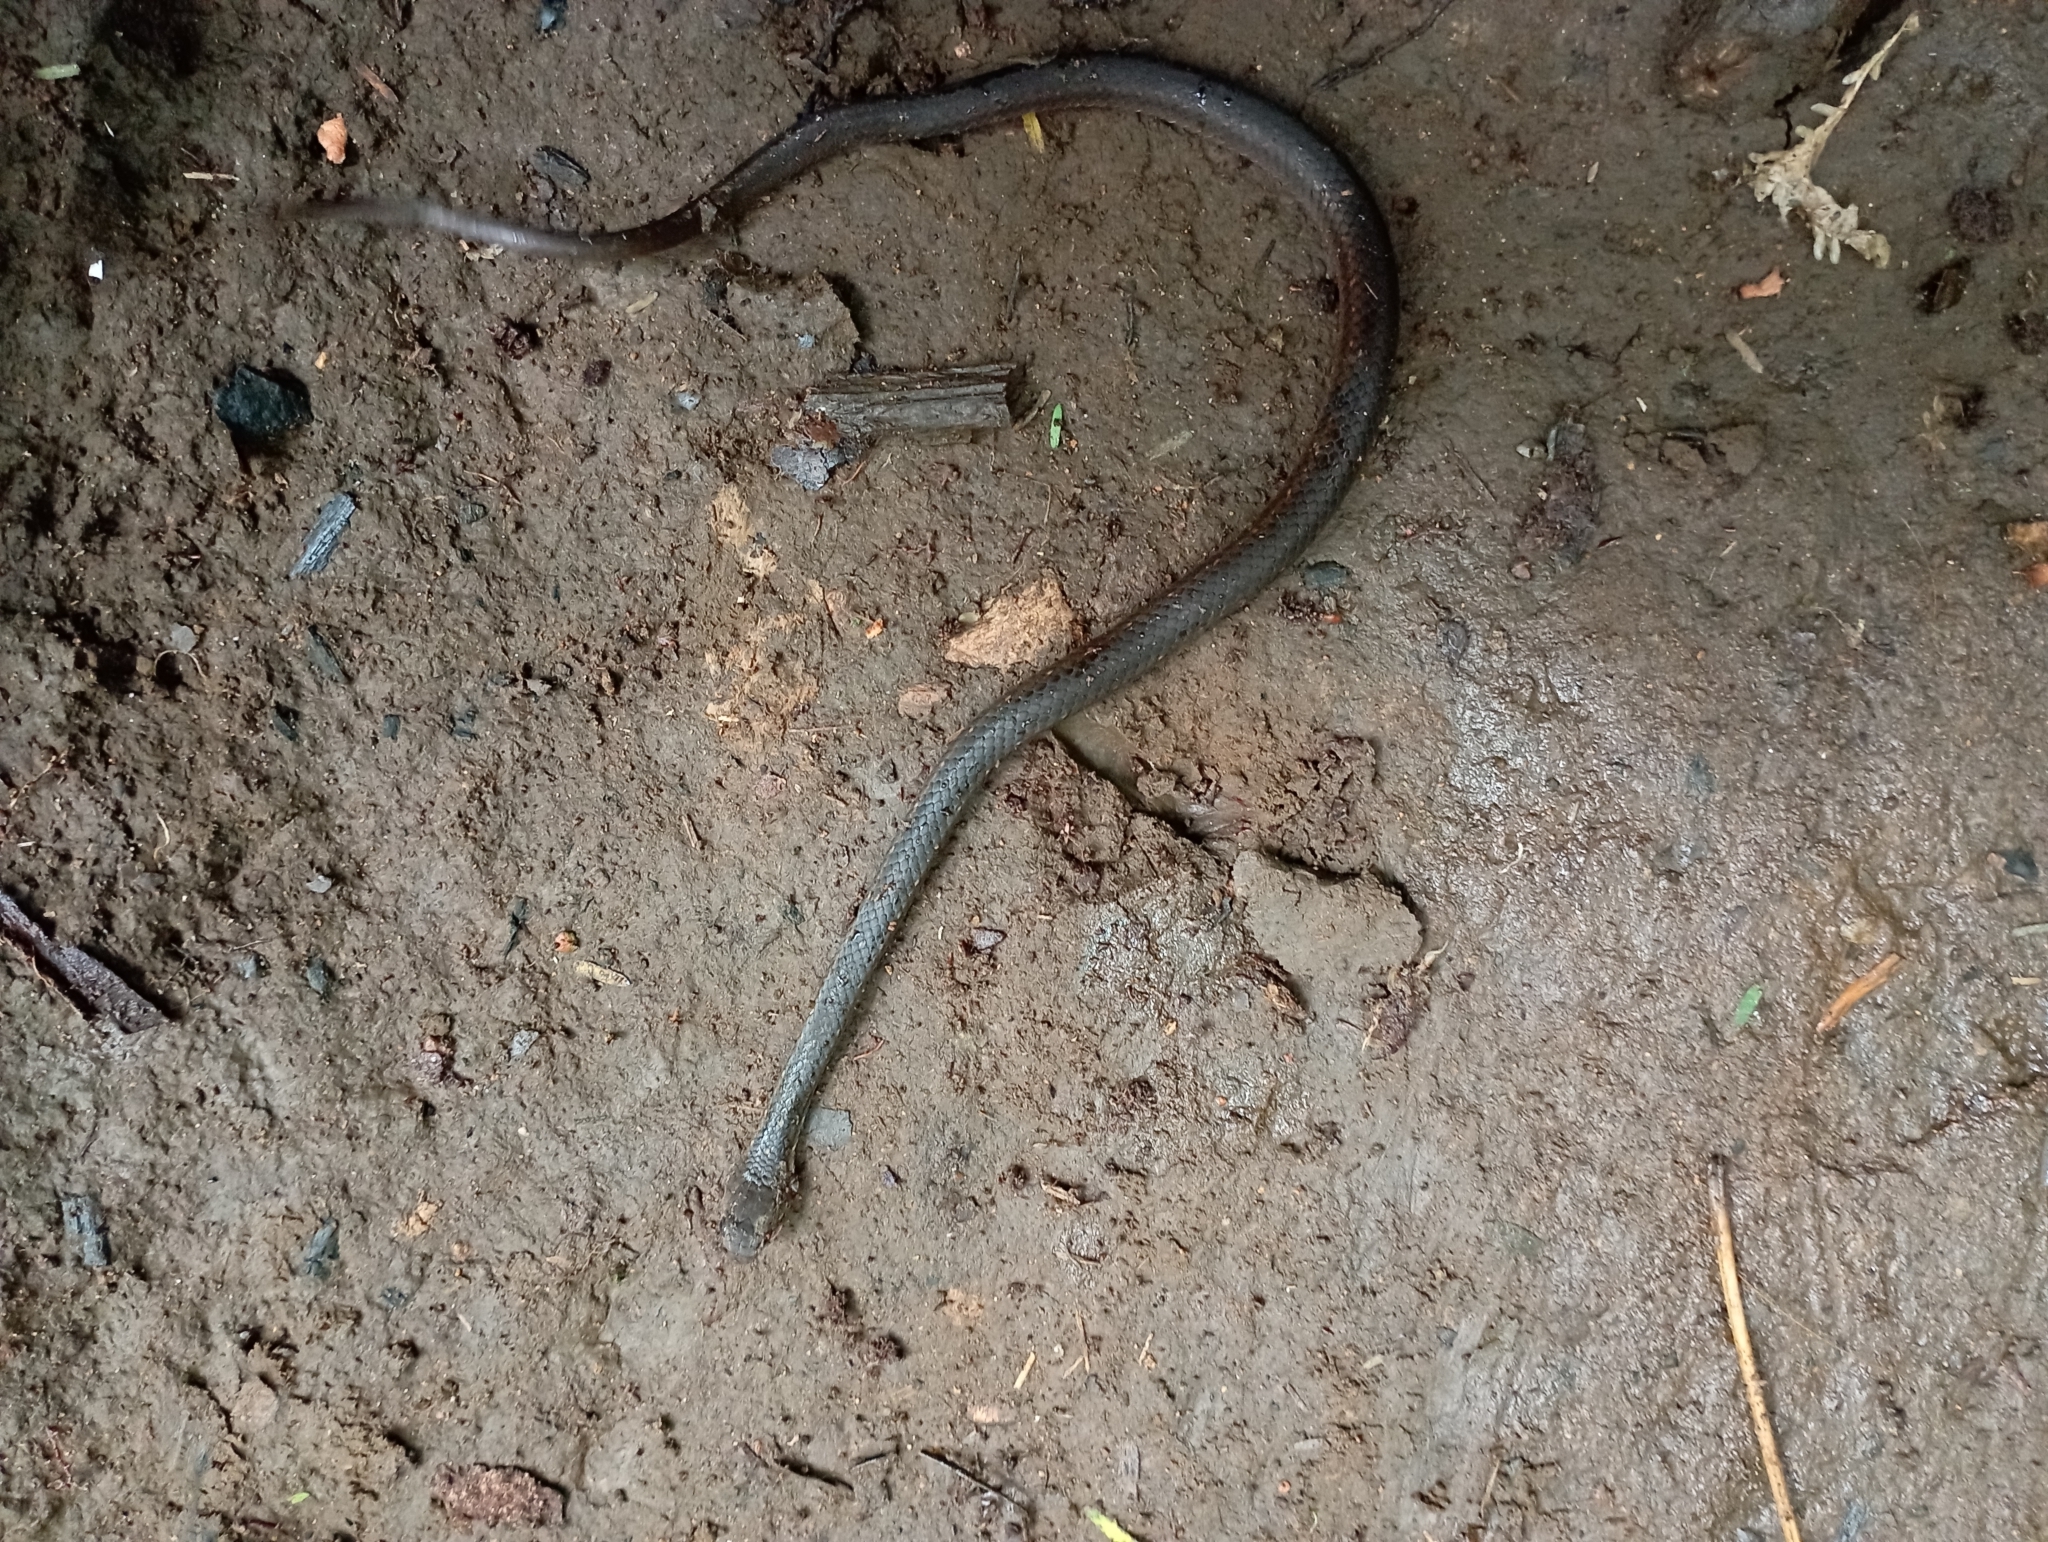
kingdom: Animalia
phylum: Chordata
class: Squamata
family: Colubridae
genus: Ptyas
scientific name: Ptyas korros
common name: Indo-chinese rat snake
